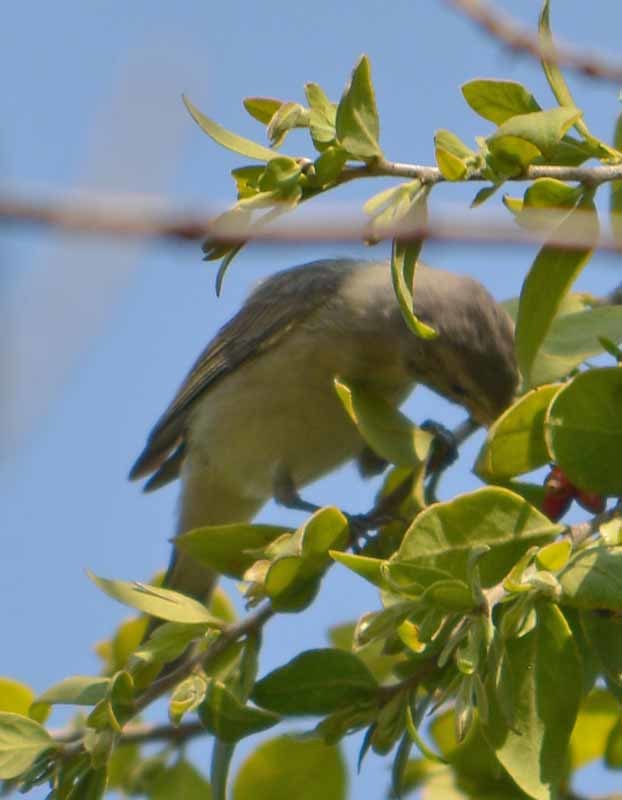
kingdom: Animalia
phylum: Chordata
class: Aves
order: Passeriformes
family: Vireonidae
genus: Vireo
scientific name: Vireo gilvus
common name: Warbling vireo
